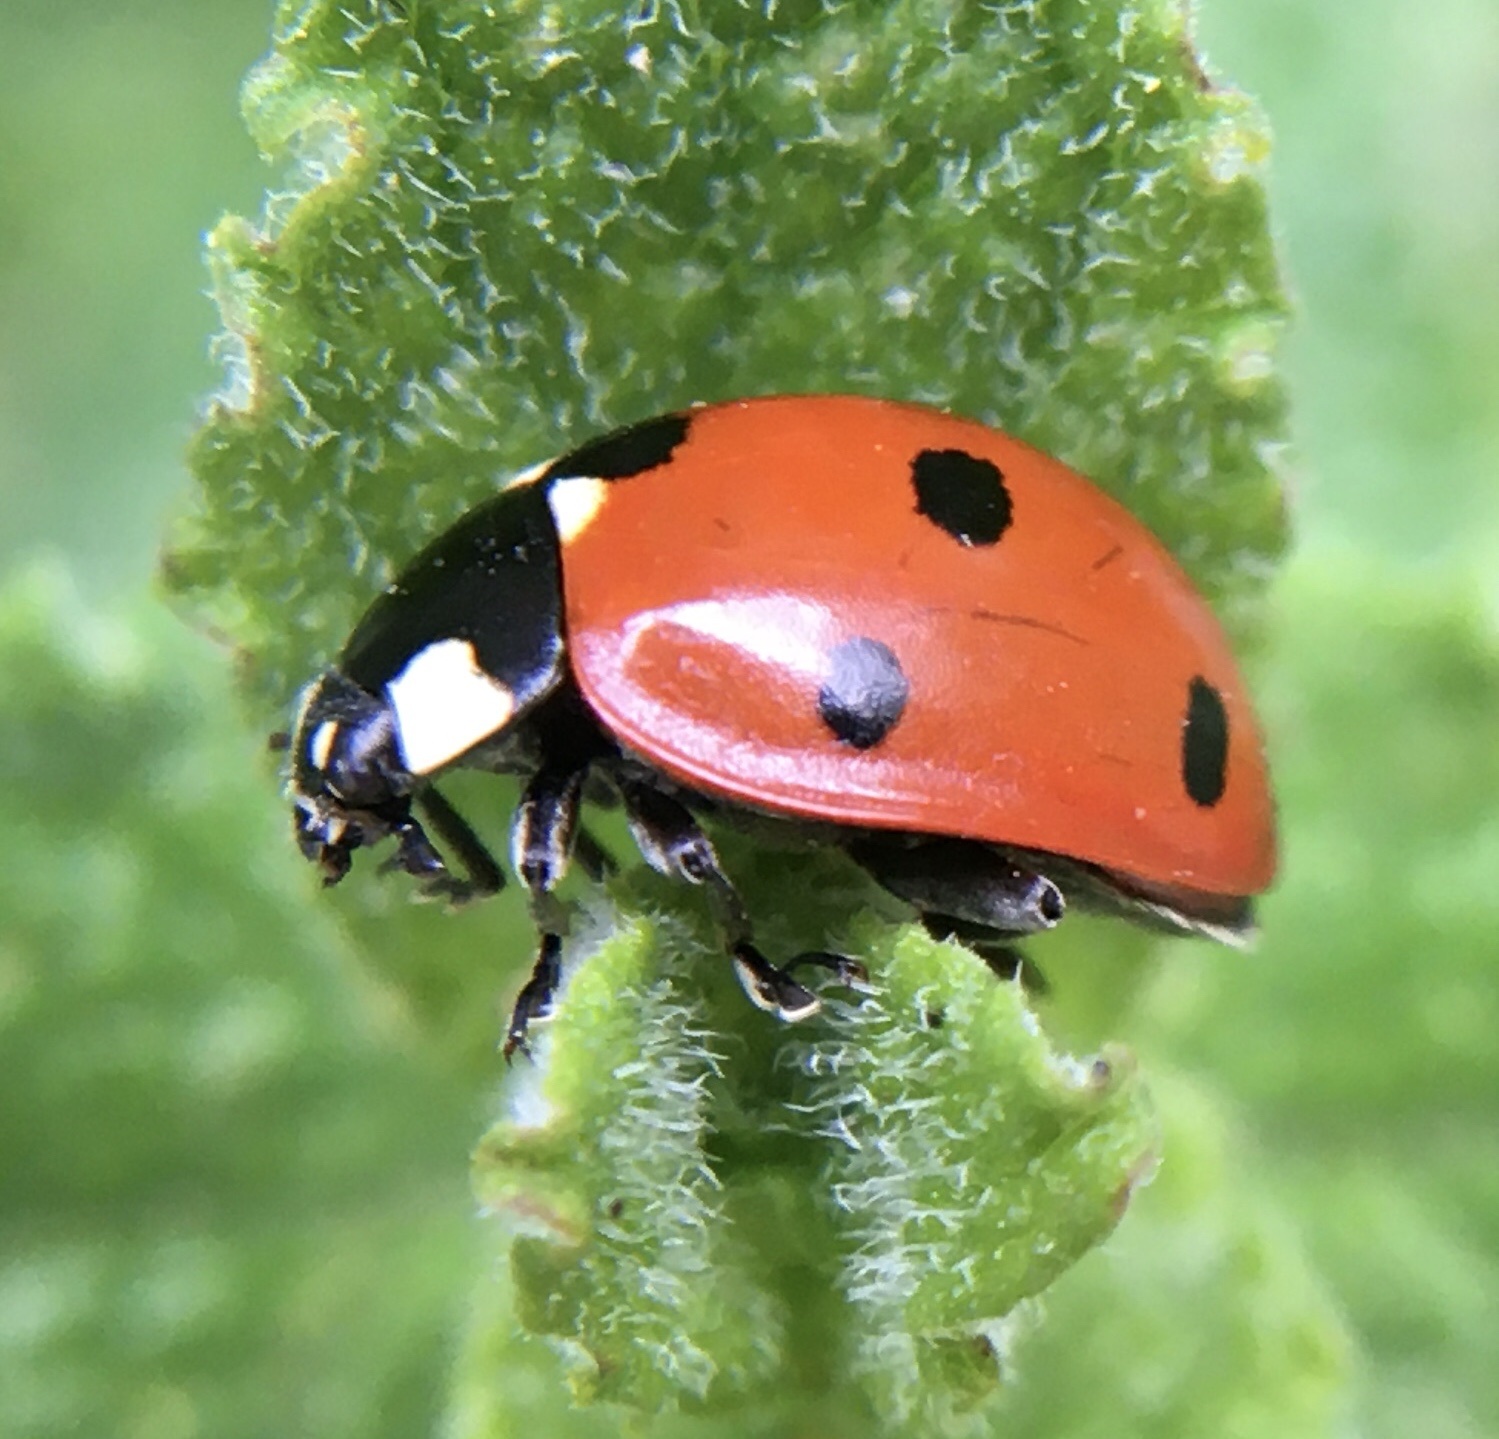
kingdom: Animalia
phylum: Arthropoda
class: Insecta
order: Coleoptera
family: Coccinellidae
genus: Coccinella
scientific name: Coccinella septempunctata
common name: Sevenspotted lady beetle
